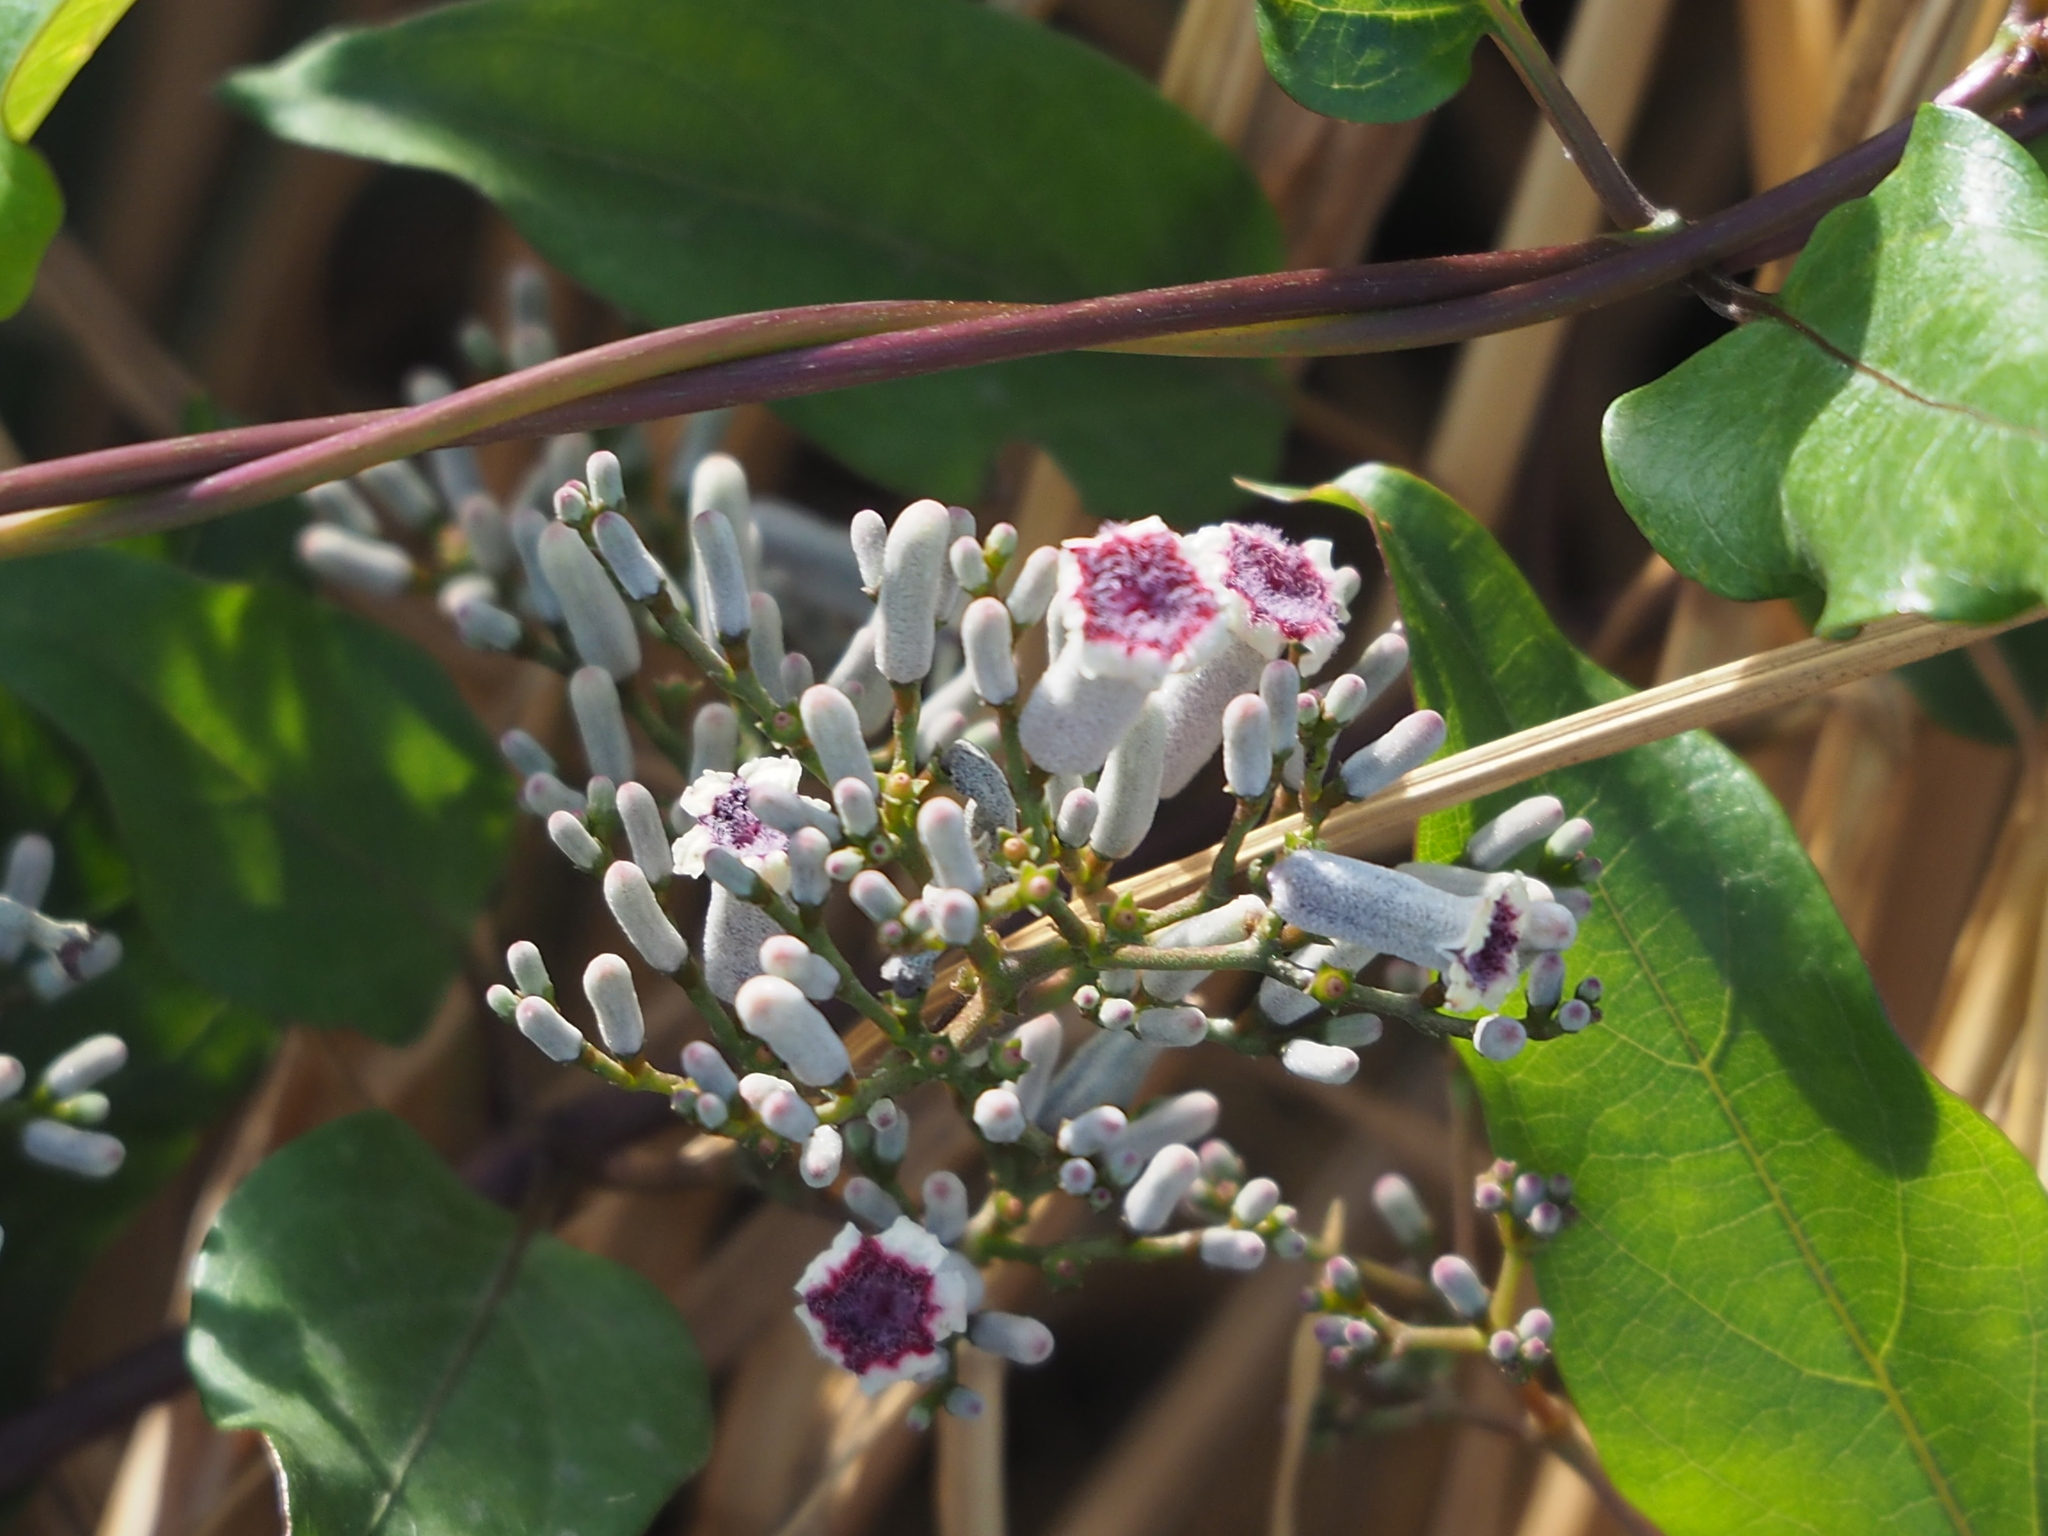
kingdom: Plantae
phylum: Tracheophyta
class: Magnoliopsida
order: Gentianales
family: Rubiaceae
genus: Paederia
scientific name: Paederia foetida
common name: Stinkvine
